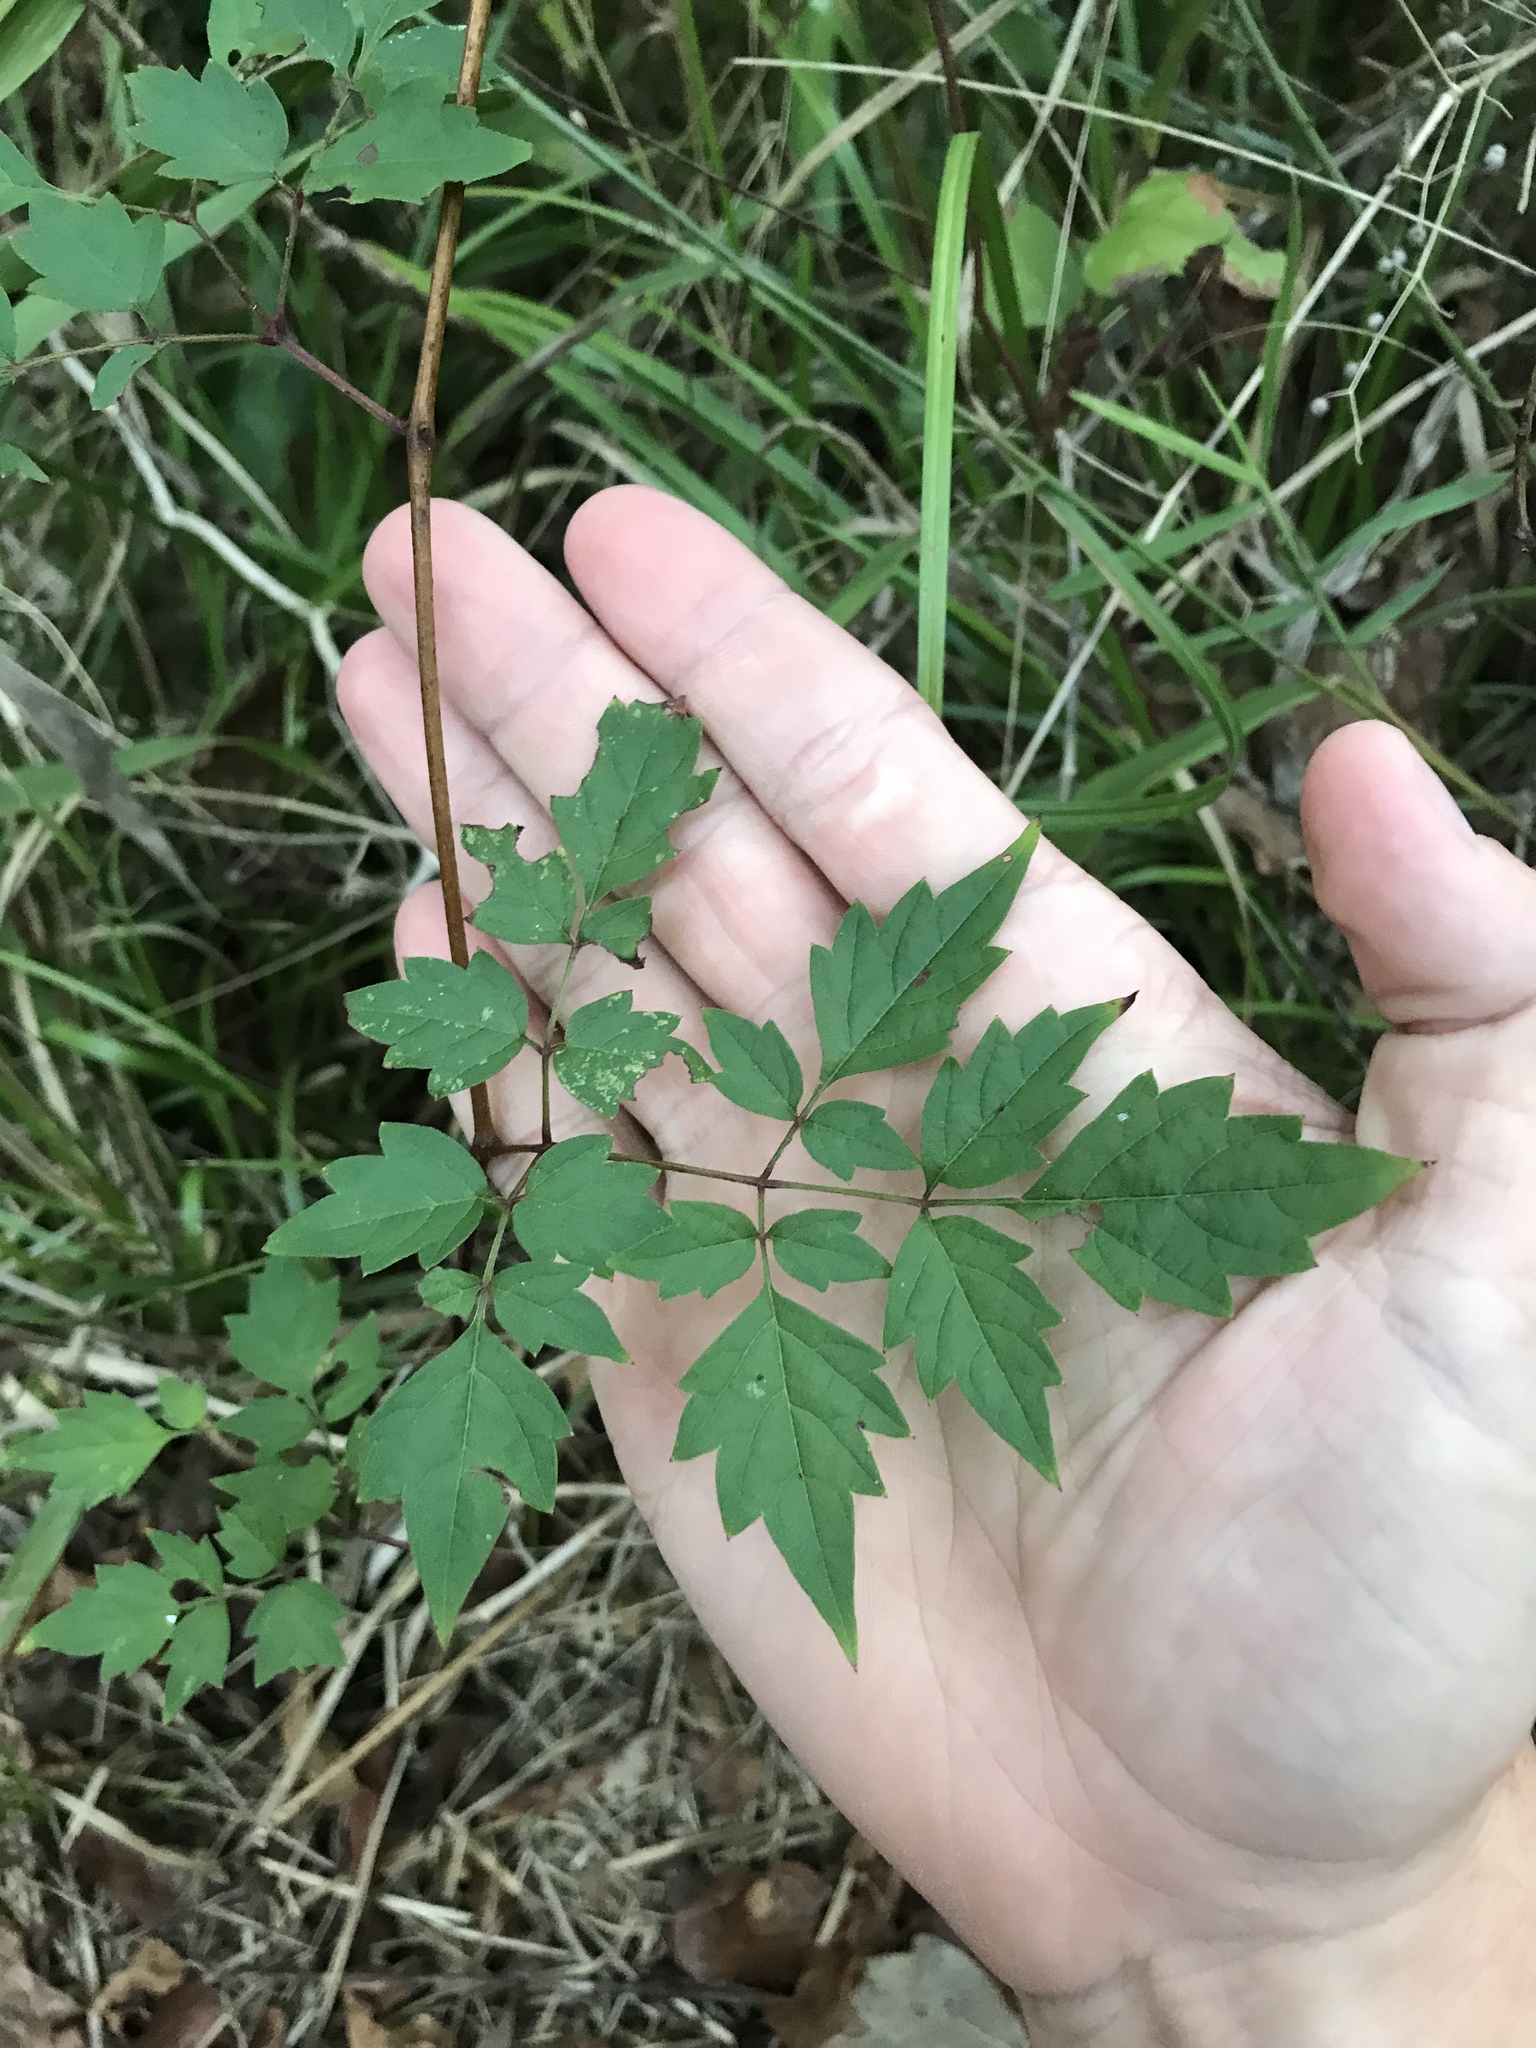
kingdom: Plantae
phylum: Tracheophyta
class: Magnoliopsida
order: Vitales
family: Vitaceae
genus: Nekemias
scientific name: Nekemias arborea
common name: Peppervine
